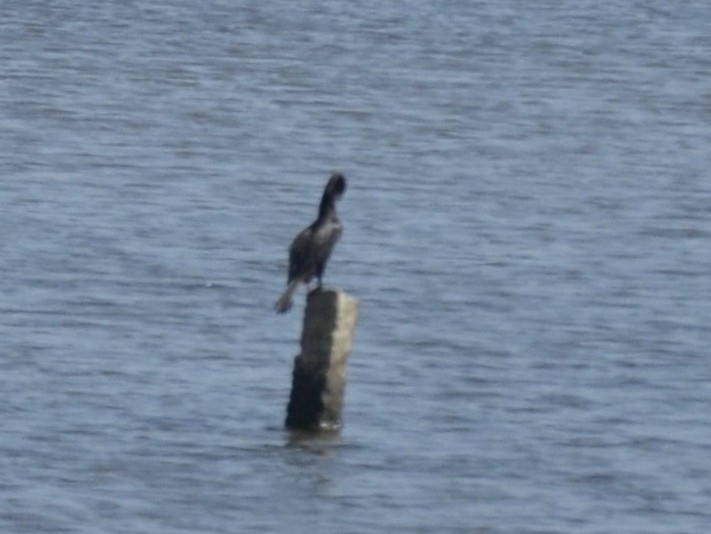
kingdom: Animalia
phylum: Chordata
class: Aves
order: Suliformes
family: Phalacrocoracidae
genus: Microcarbo
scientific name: Microcarbo niger
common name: Little cormorant
